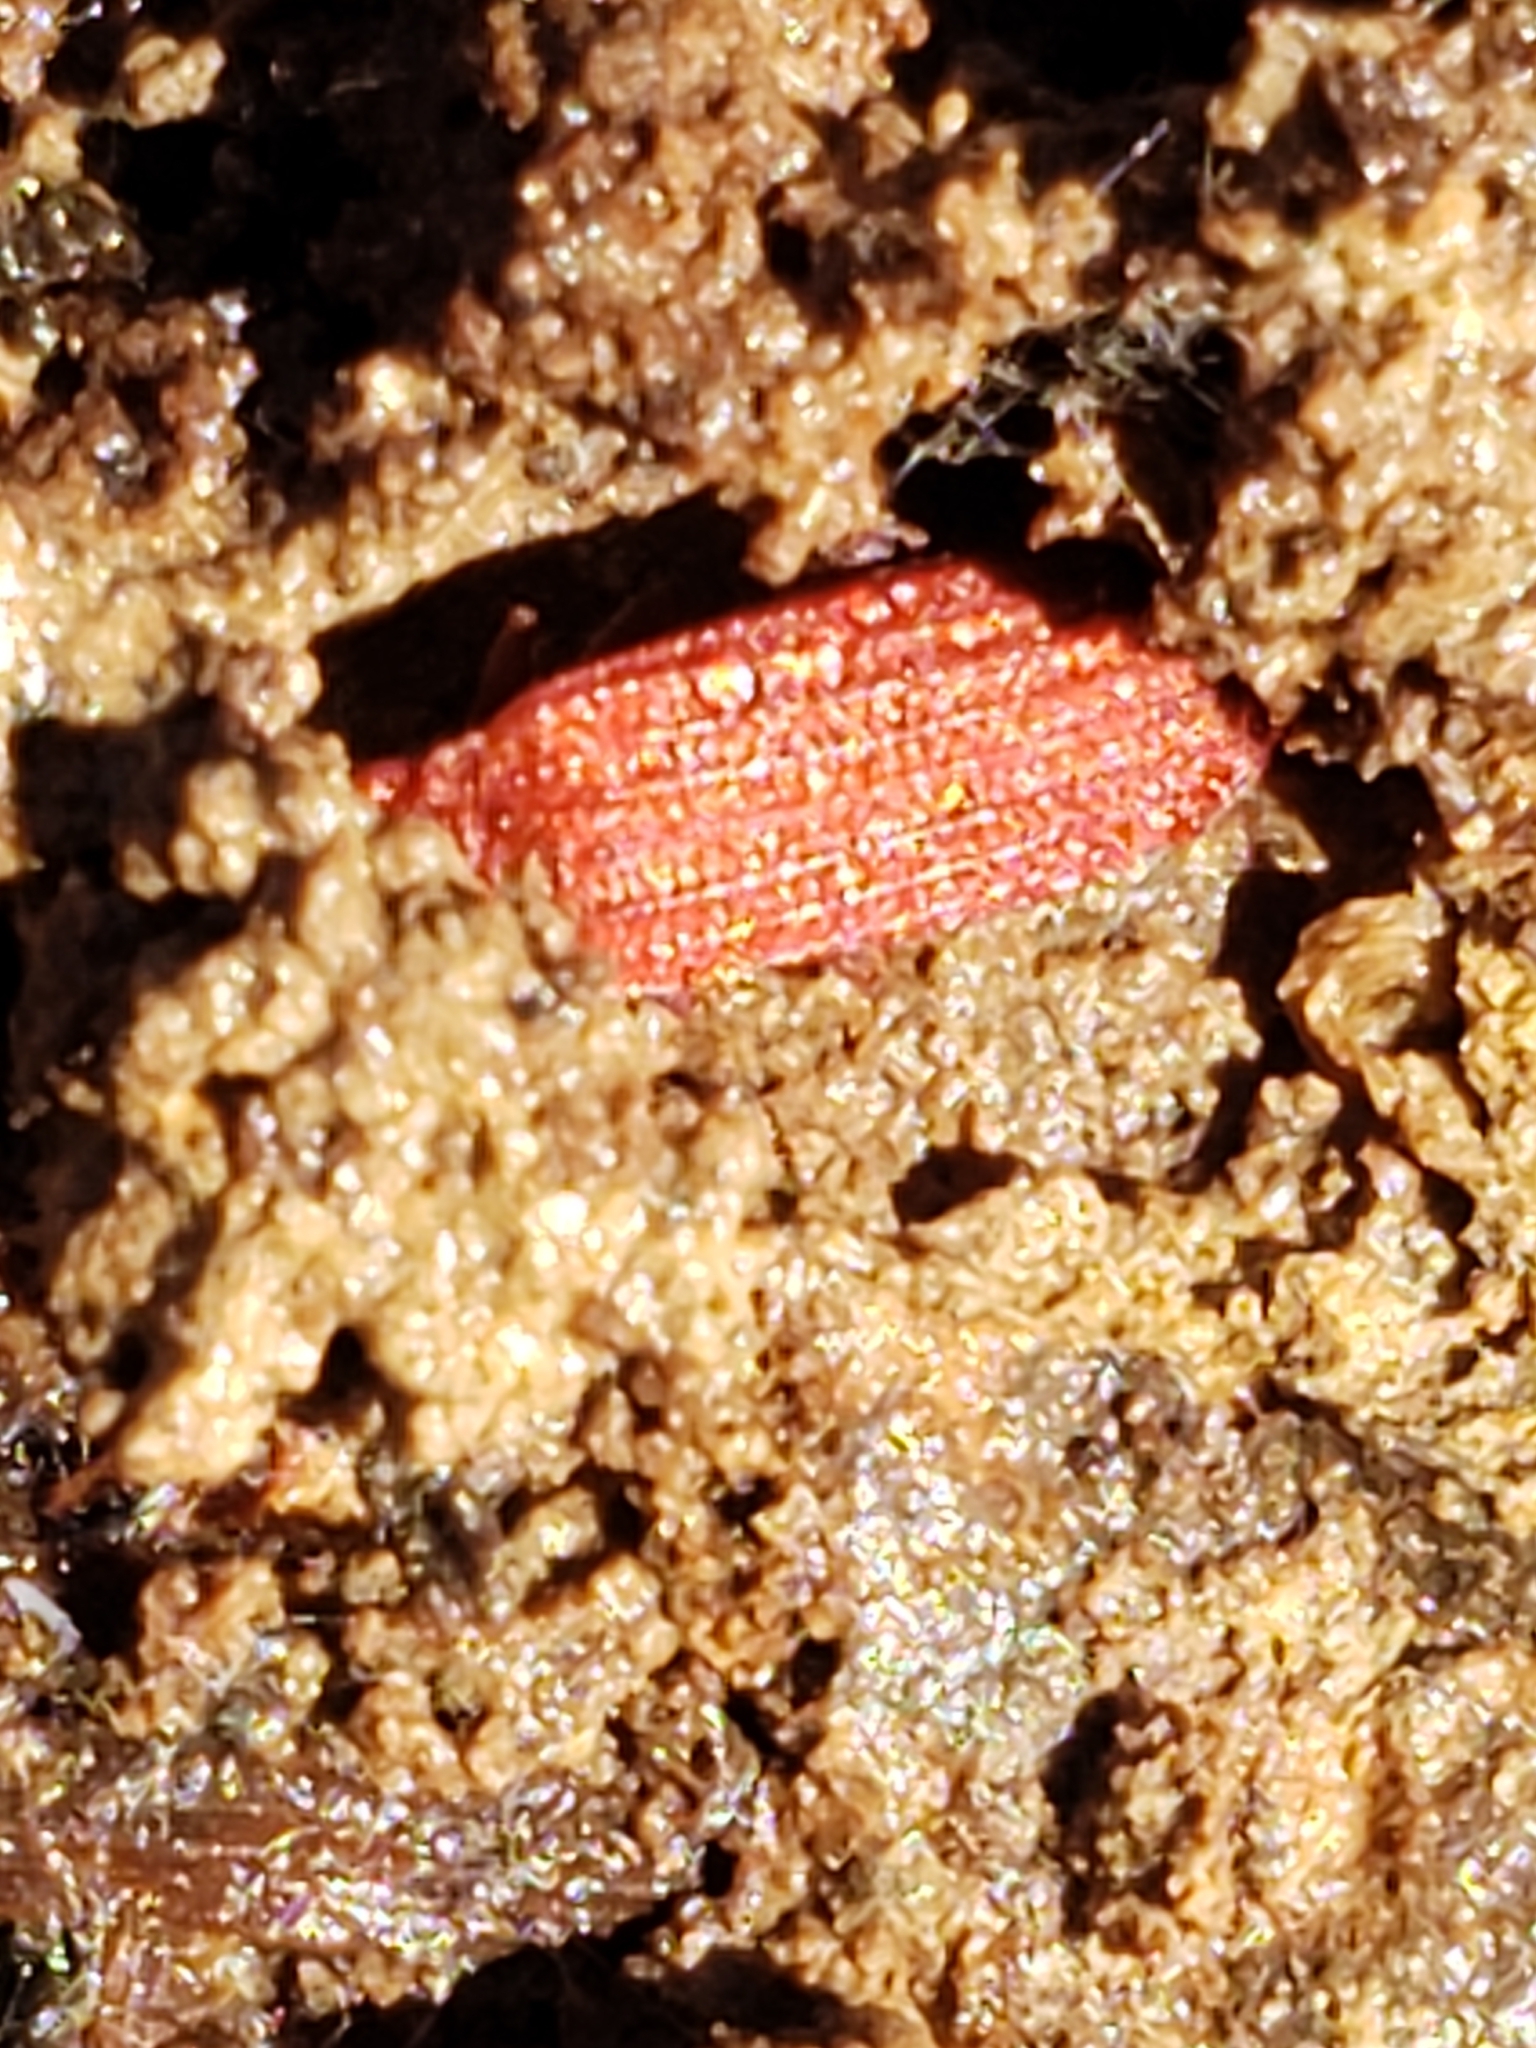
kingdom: Animalia
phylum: Arthropoda
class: Insecta
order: Coleoptera
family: Lycidae
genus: Punicealis
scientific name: Punicealis
